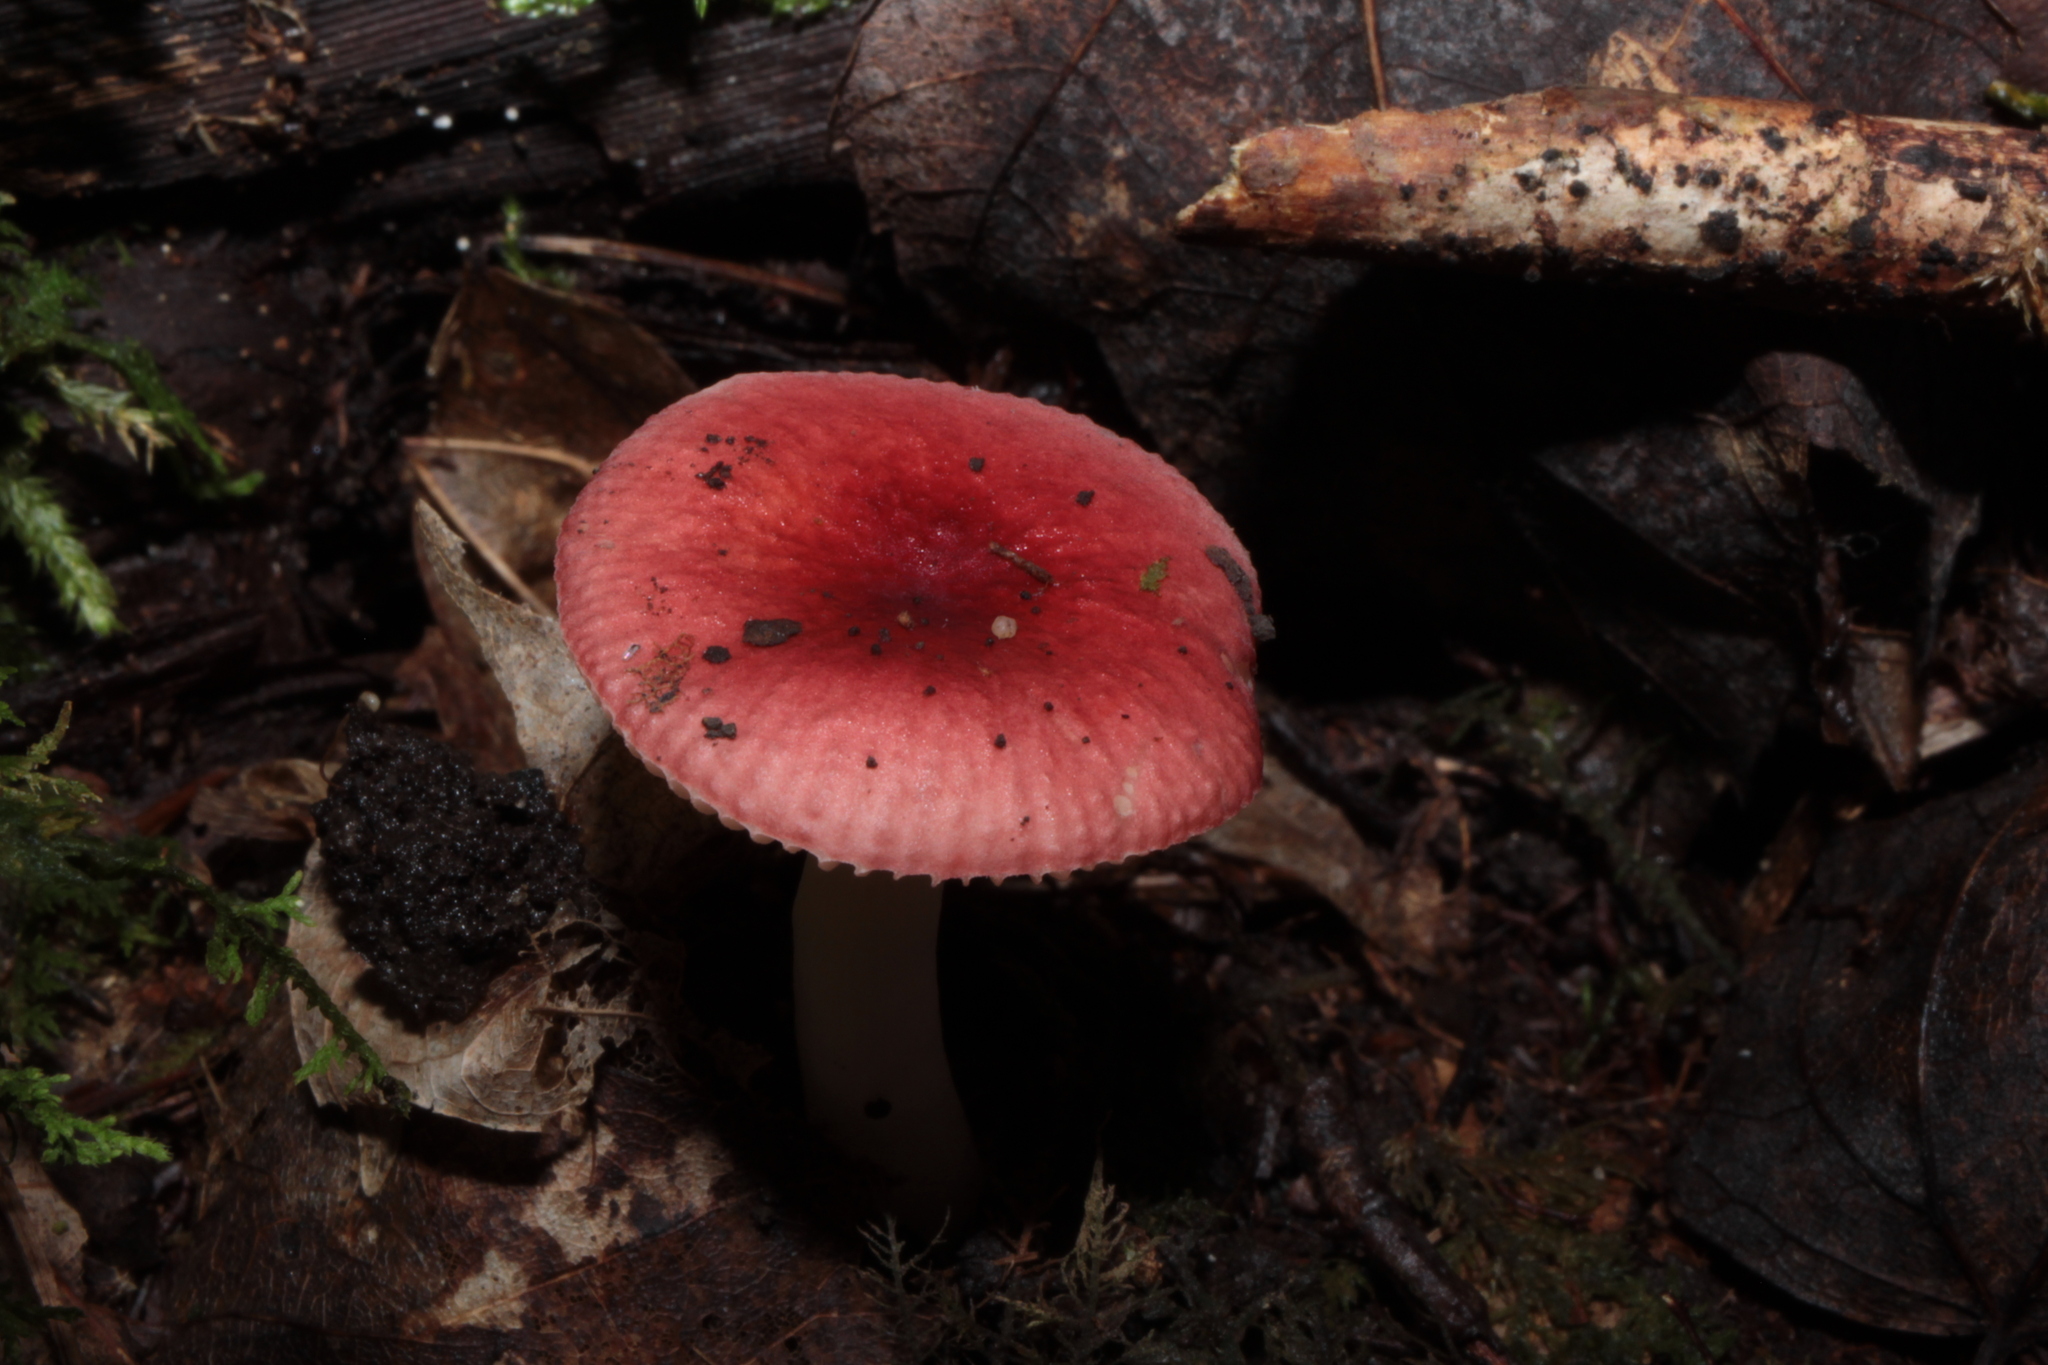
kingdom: Fungi
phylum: Basidiomycota
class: Agaricomycetes
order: Russulales
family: Russulaceae
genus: Russula
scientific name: Russula subsulphurea
